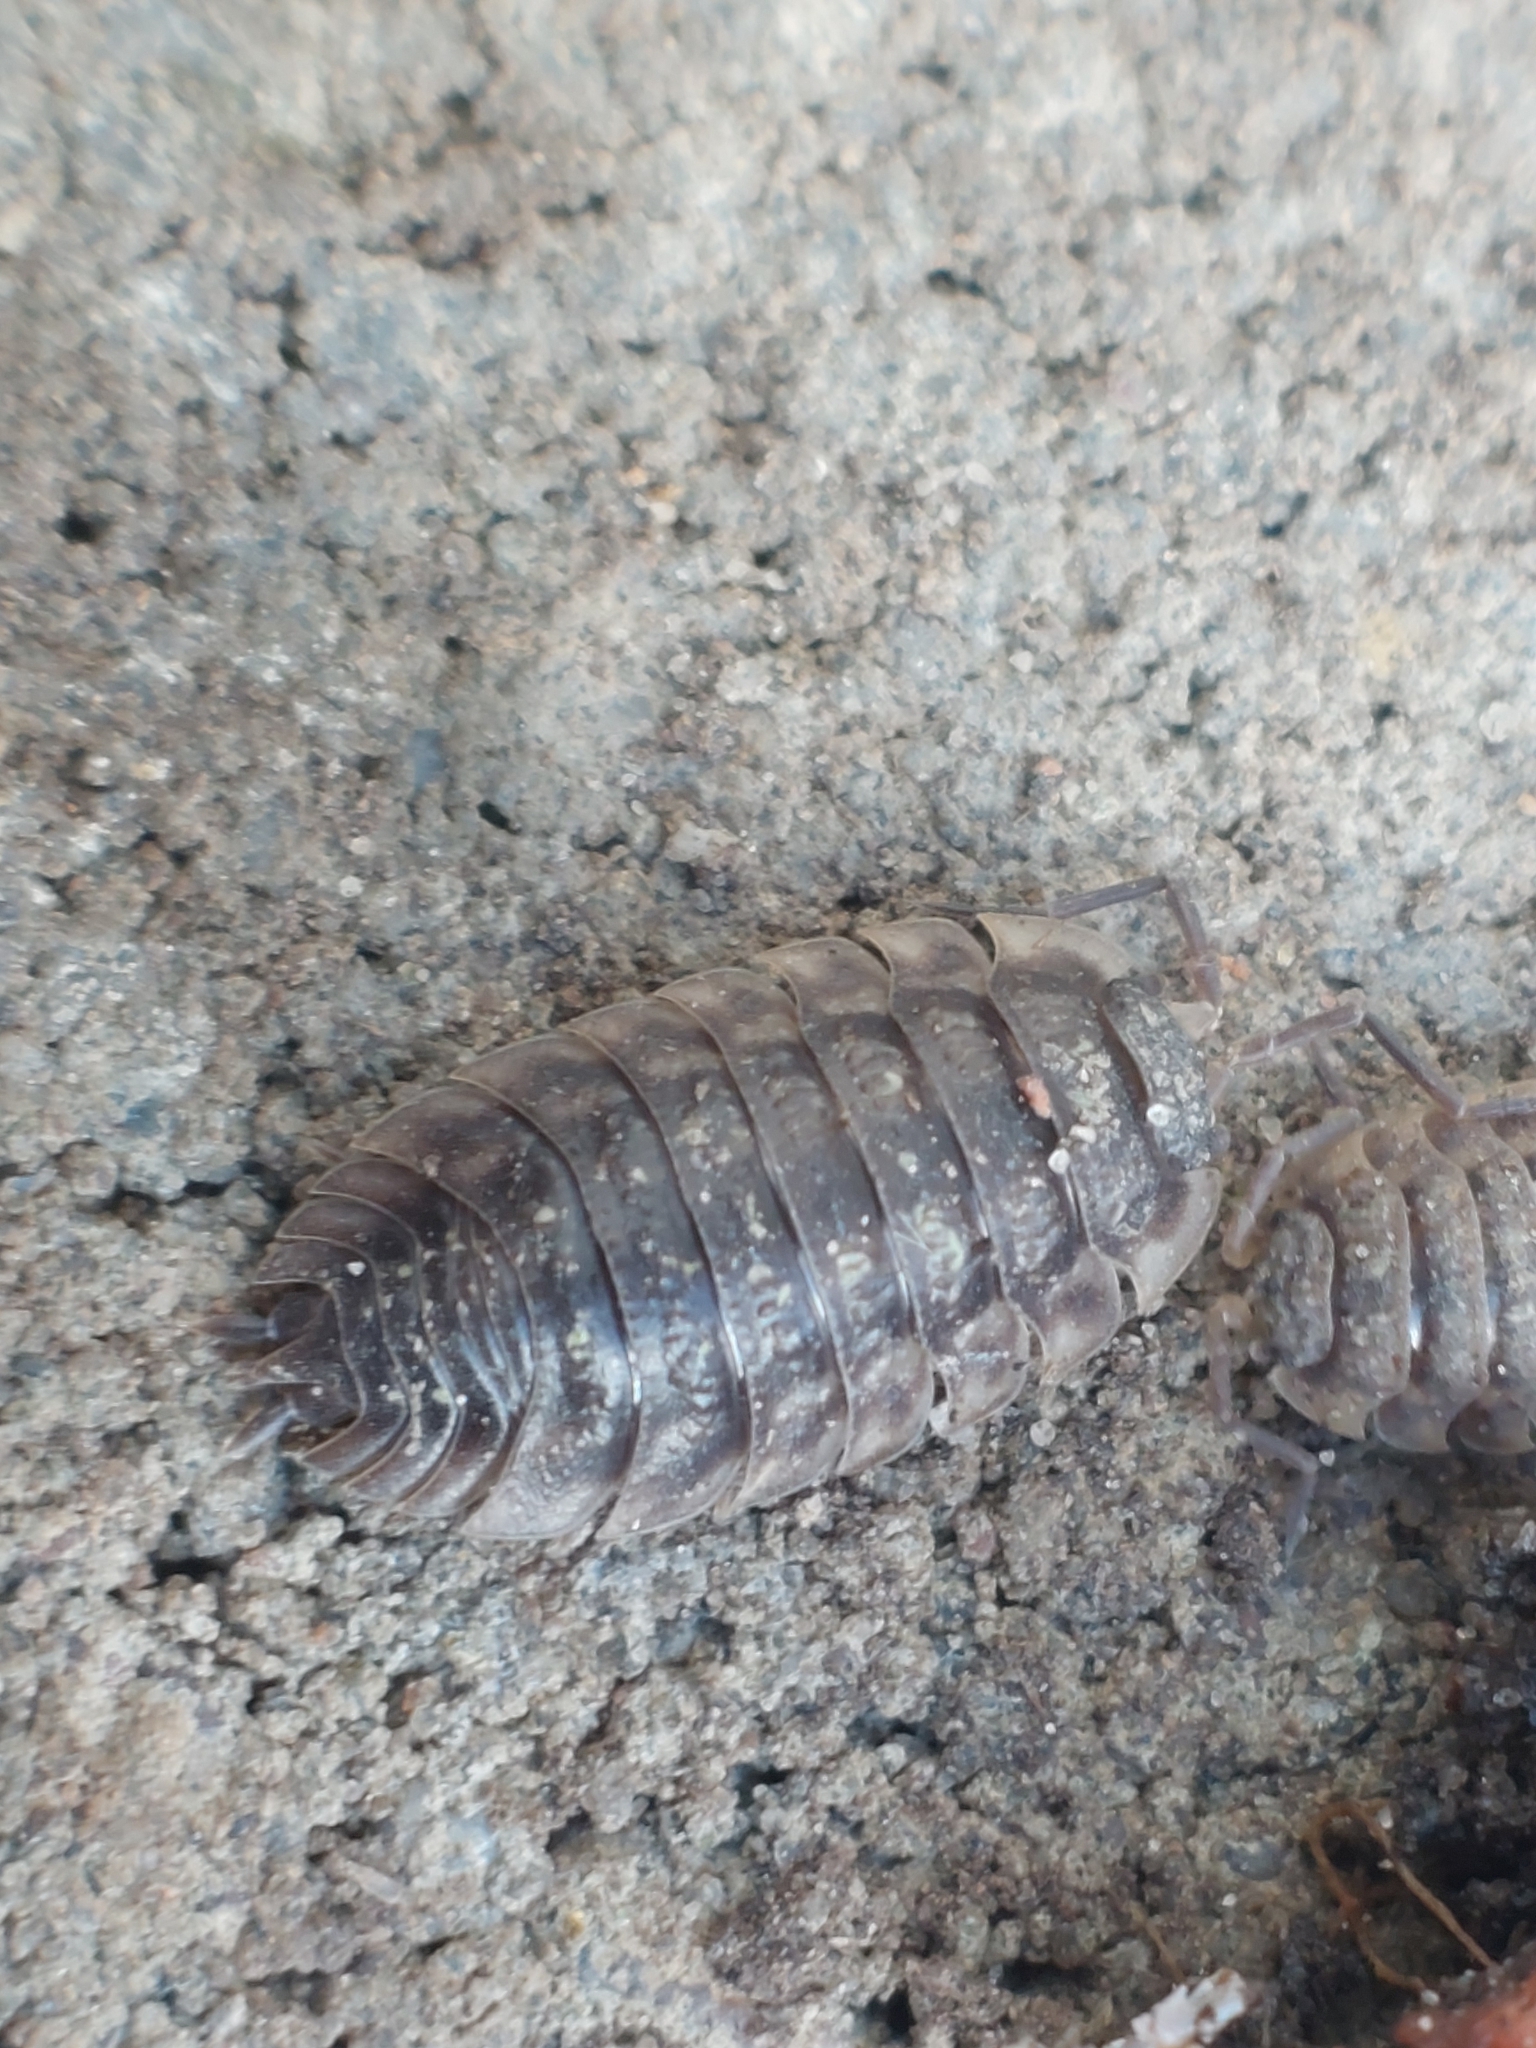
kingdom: Animalia
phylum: Arthropoda
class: Malacostraca
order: Isopoda
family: Oniscidae
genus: Oniscus
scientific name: Oniscus asellus
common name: Common shiny woodlouse
